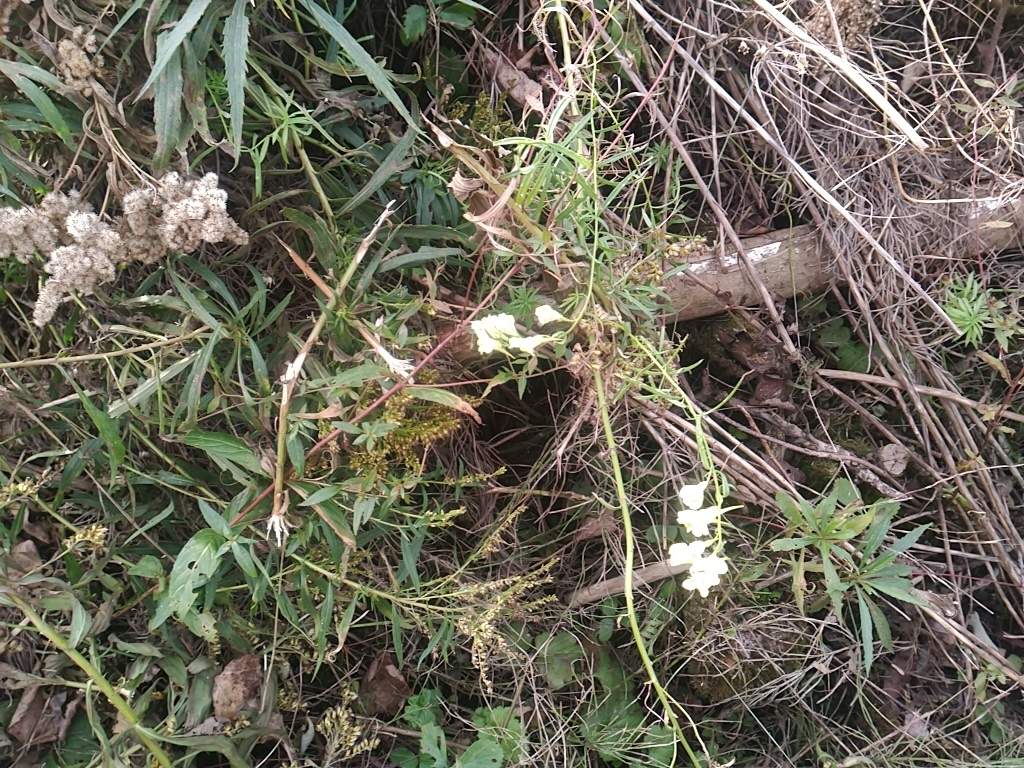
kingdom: Plantae
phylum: Tracheophyta
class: Magnoliopsida
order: Lamiales
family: Plantaginaceae
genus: Linaria
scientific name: Linaria vulgaris
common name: Butter and eggs
